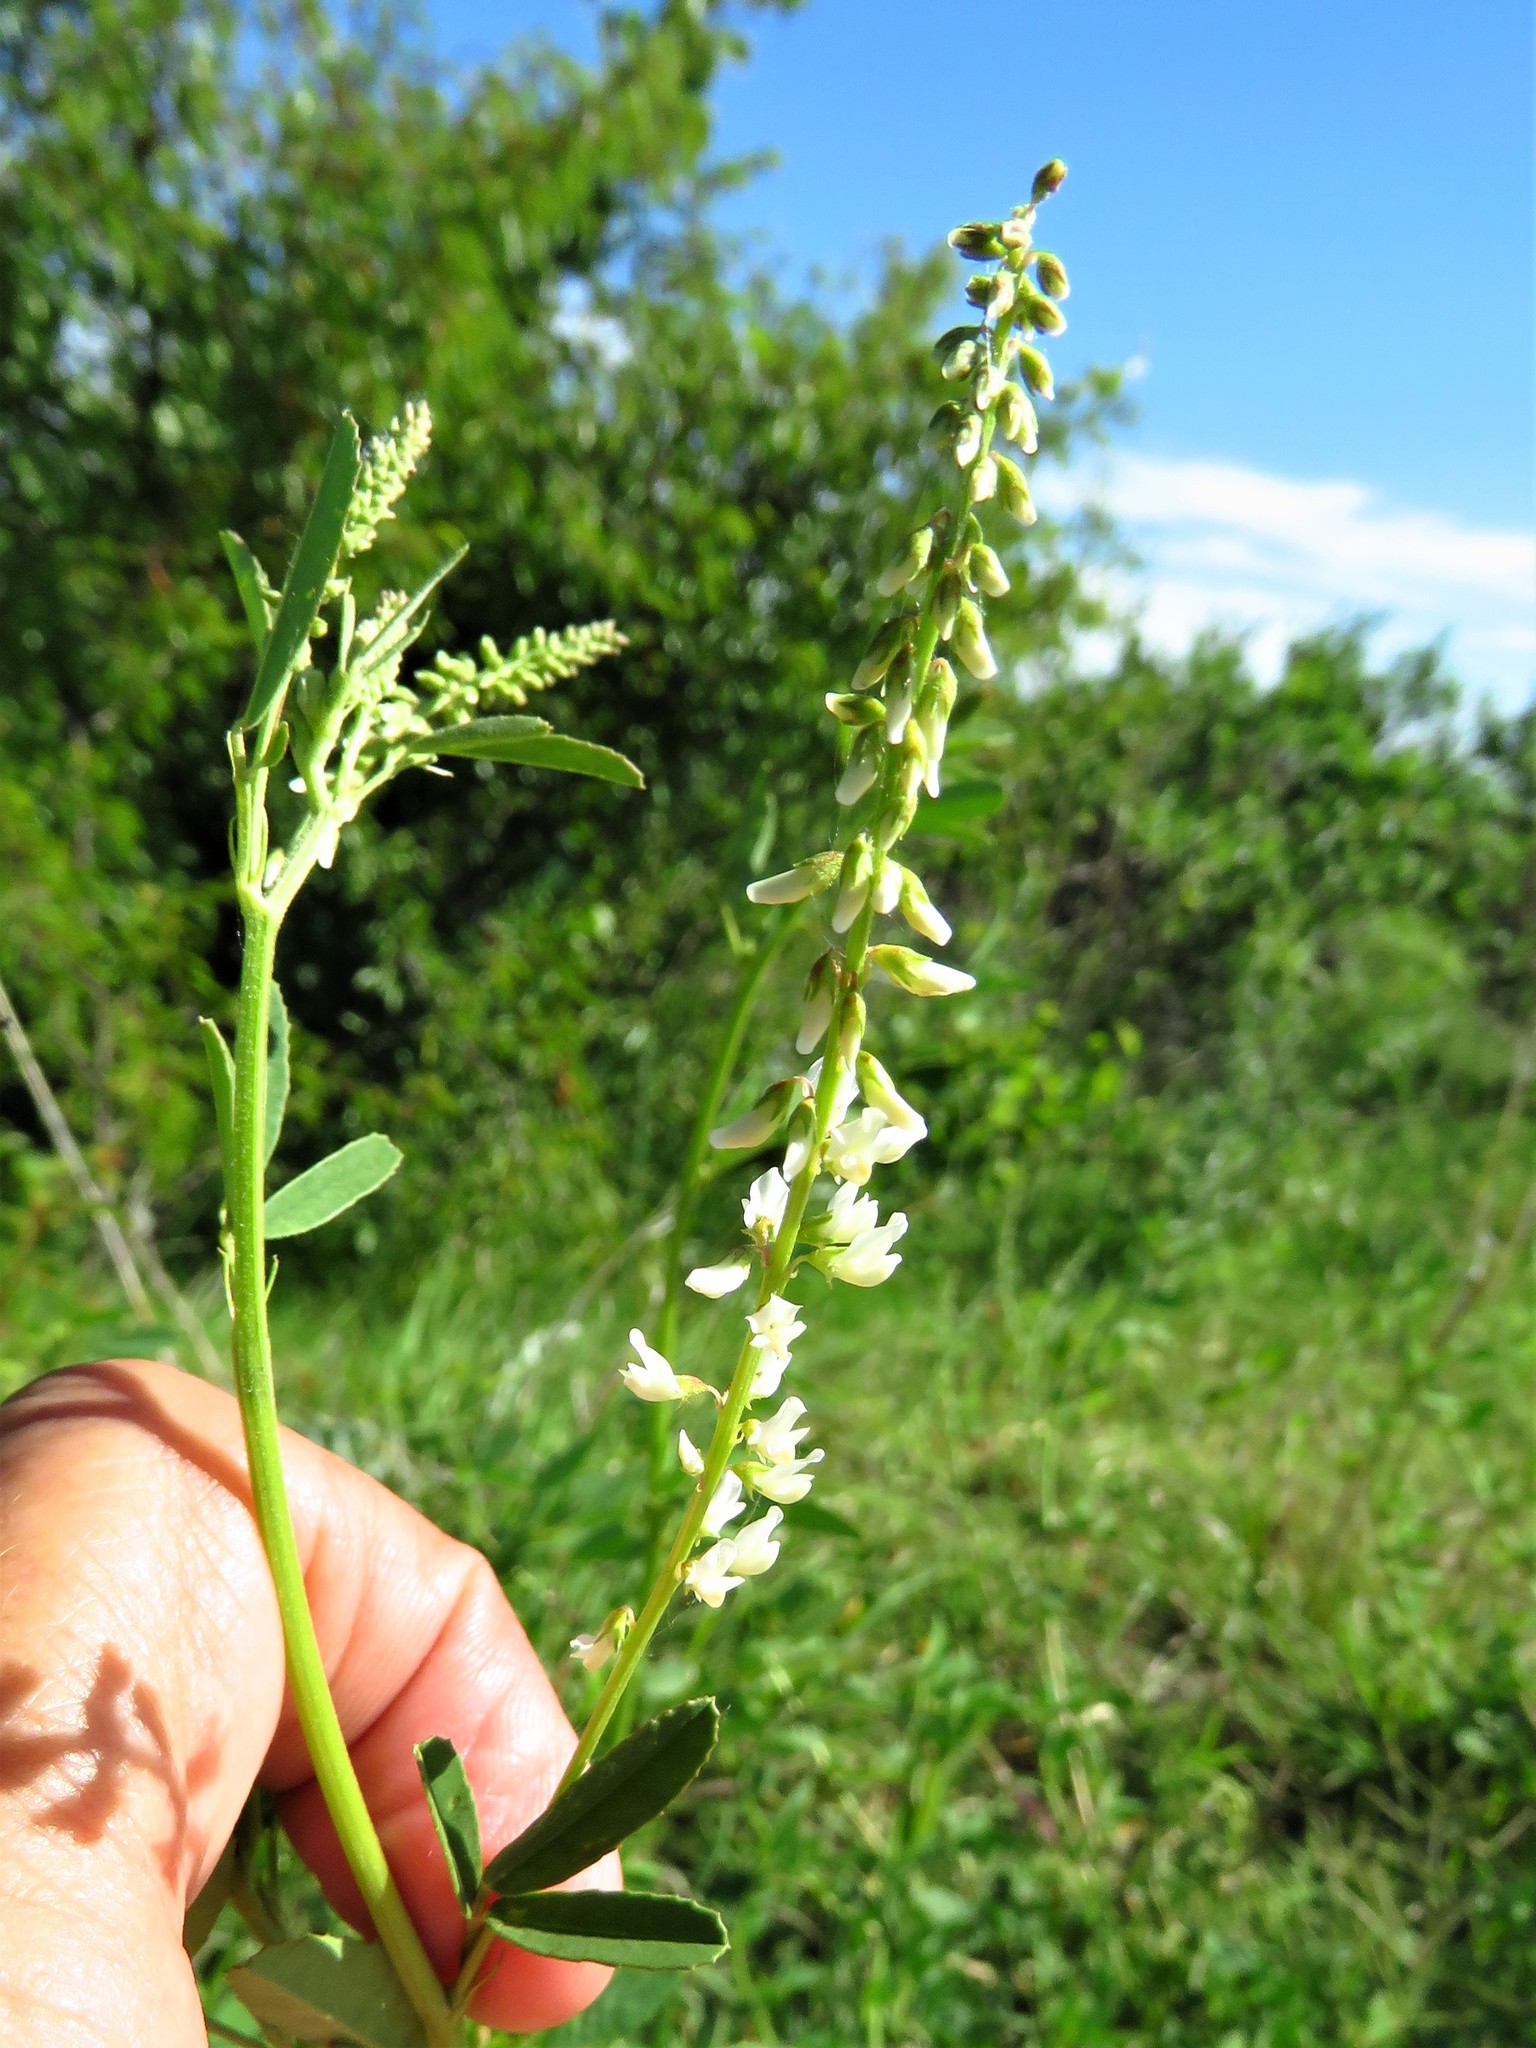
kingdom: Plantae
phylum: Tracheophyta
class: Magnoliopsida
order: Fabales
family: Fabaceae
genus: Melilotus
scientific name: Melilotus albus
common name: White melilot
